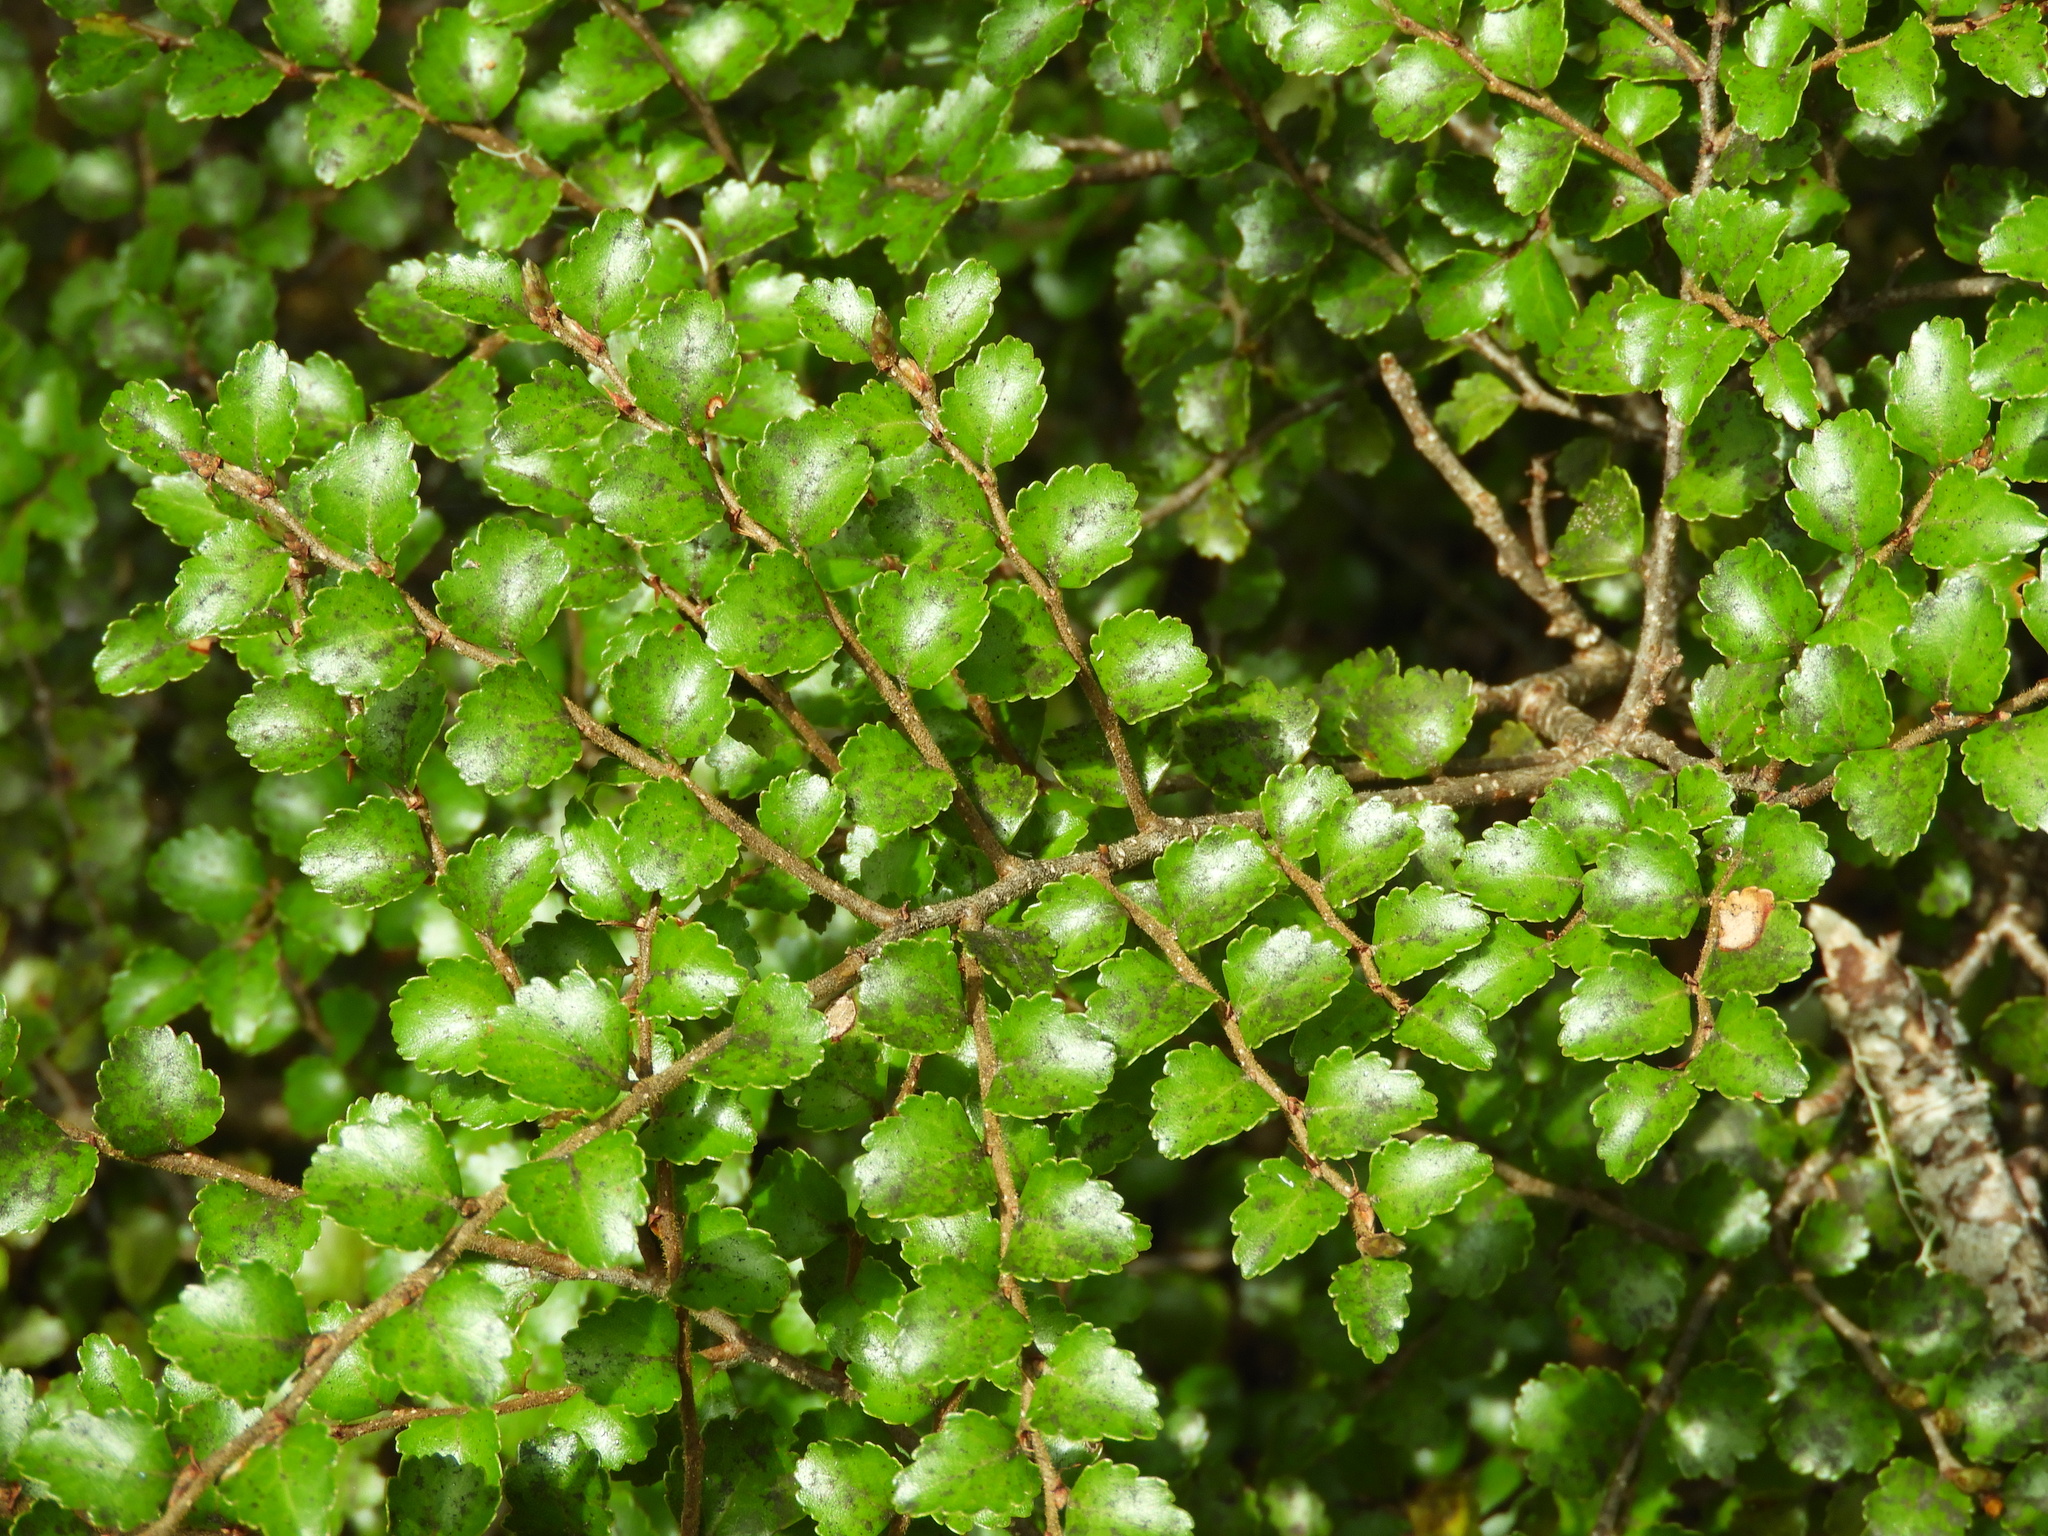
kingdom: Plantae
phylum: Tracheophyta
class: Magnoliopsida
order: Fagales
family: Nothofagaceae
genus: Nothofagus
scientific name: Nothofagus menziesii
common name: Silver beech
